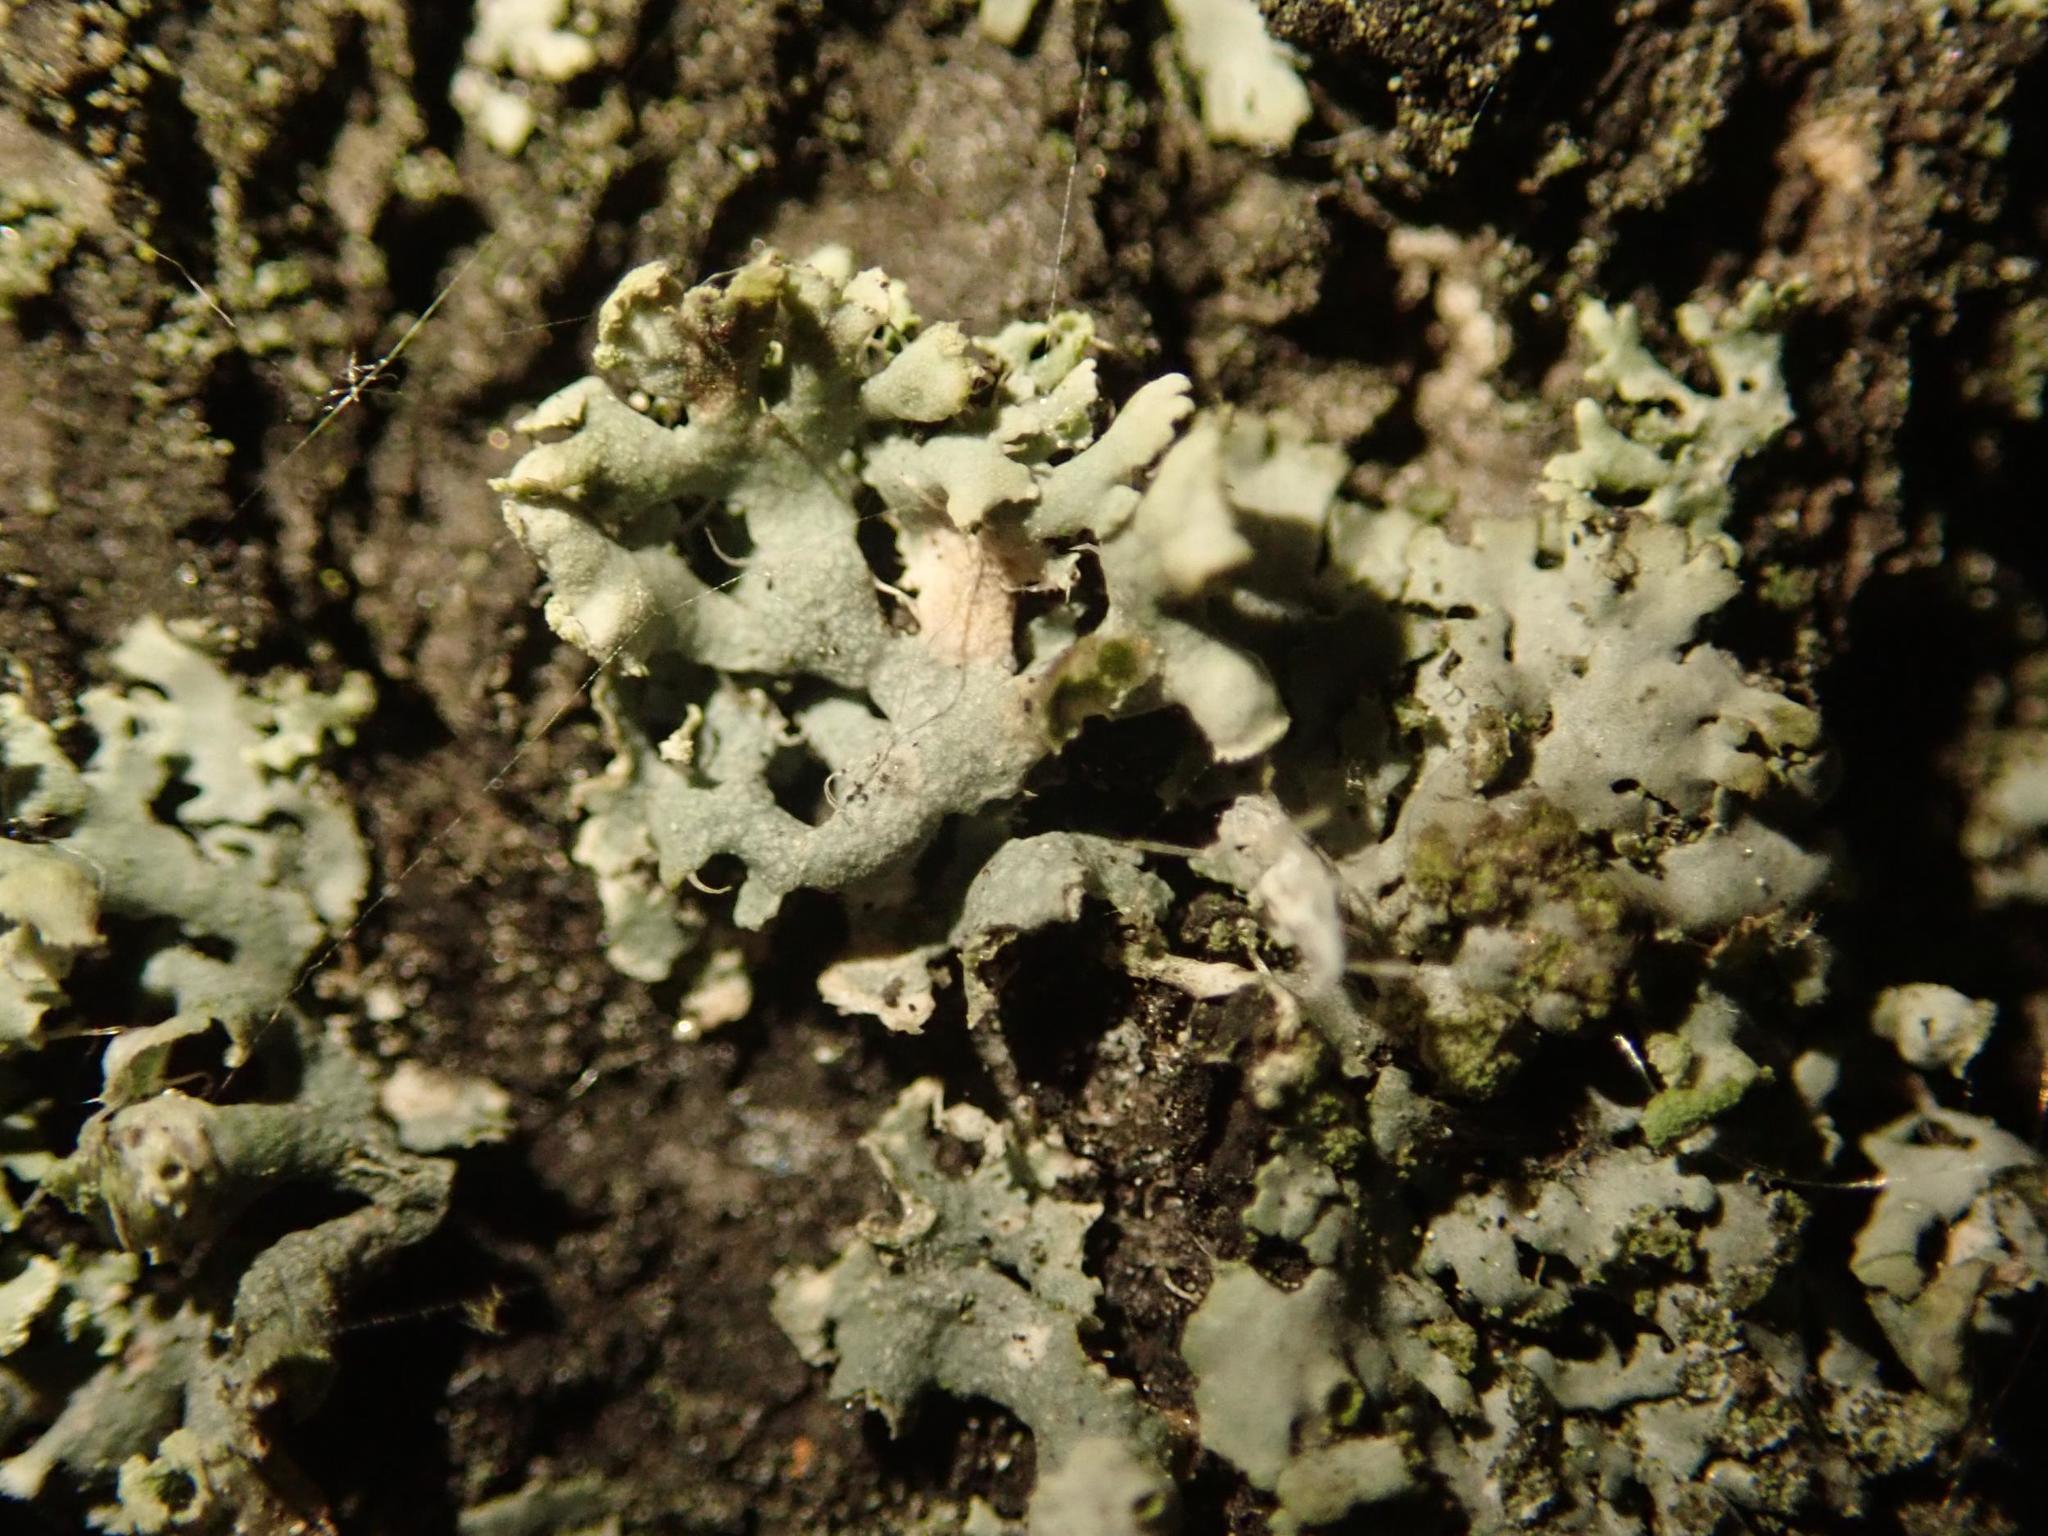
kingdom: Fungi
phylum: Ascomycota
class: Lecanoromycetes
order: Caliciales
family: Physciaceae
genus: Physcia
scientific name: Physcia adscendens
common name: Hooded rosette lichen
